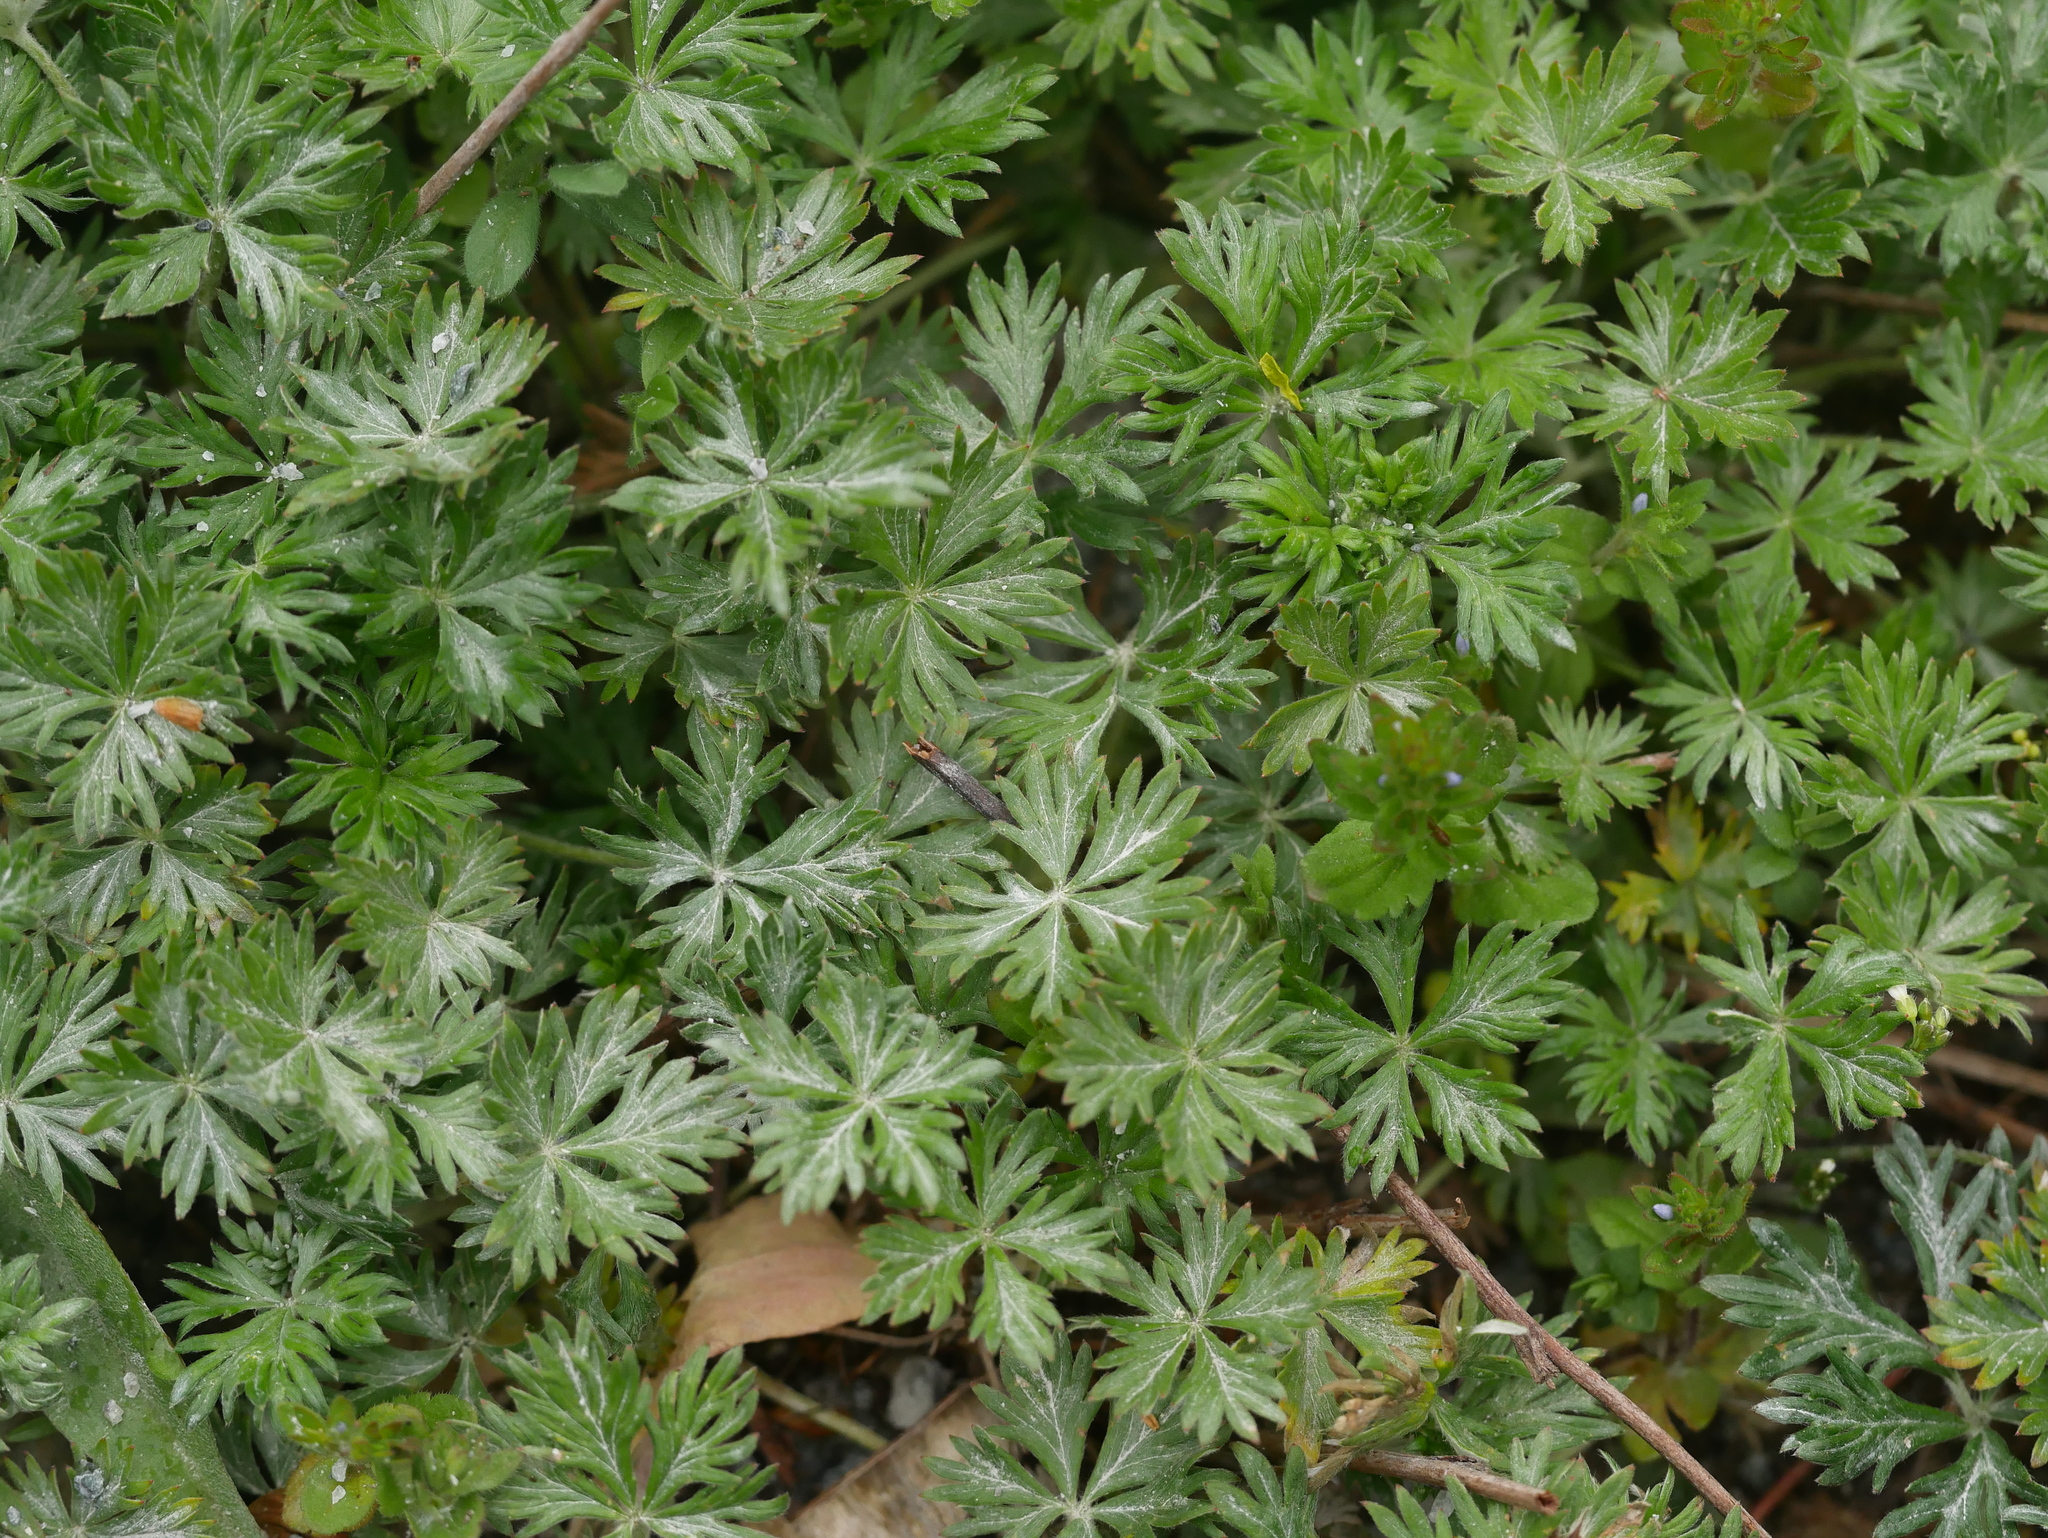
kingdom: Plantae
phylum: Tracheophyta
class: Magnoliopsida
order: Rosales
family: Rosaceae
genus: Potentilla
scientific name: Potentilla argentea
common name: Hoary cinquefoil
